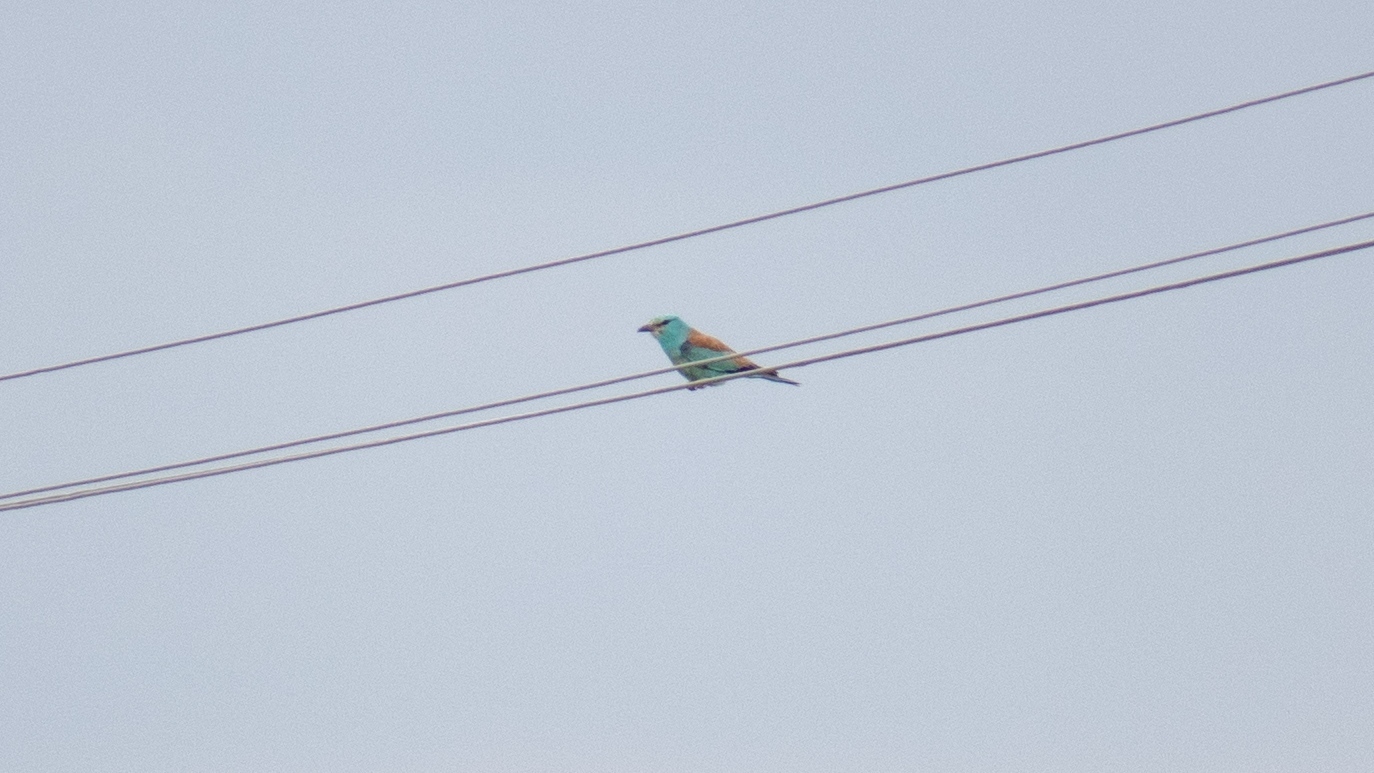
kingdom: Animalia
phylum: Chordata
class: Aves
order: Coraciiformes
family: Coraciidae
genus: Coracias
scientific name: Coracias garrulus
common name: European roller
